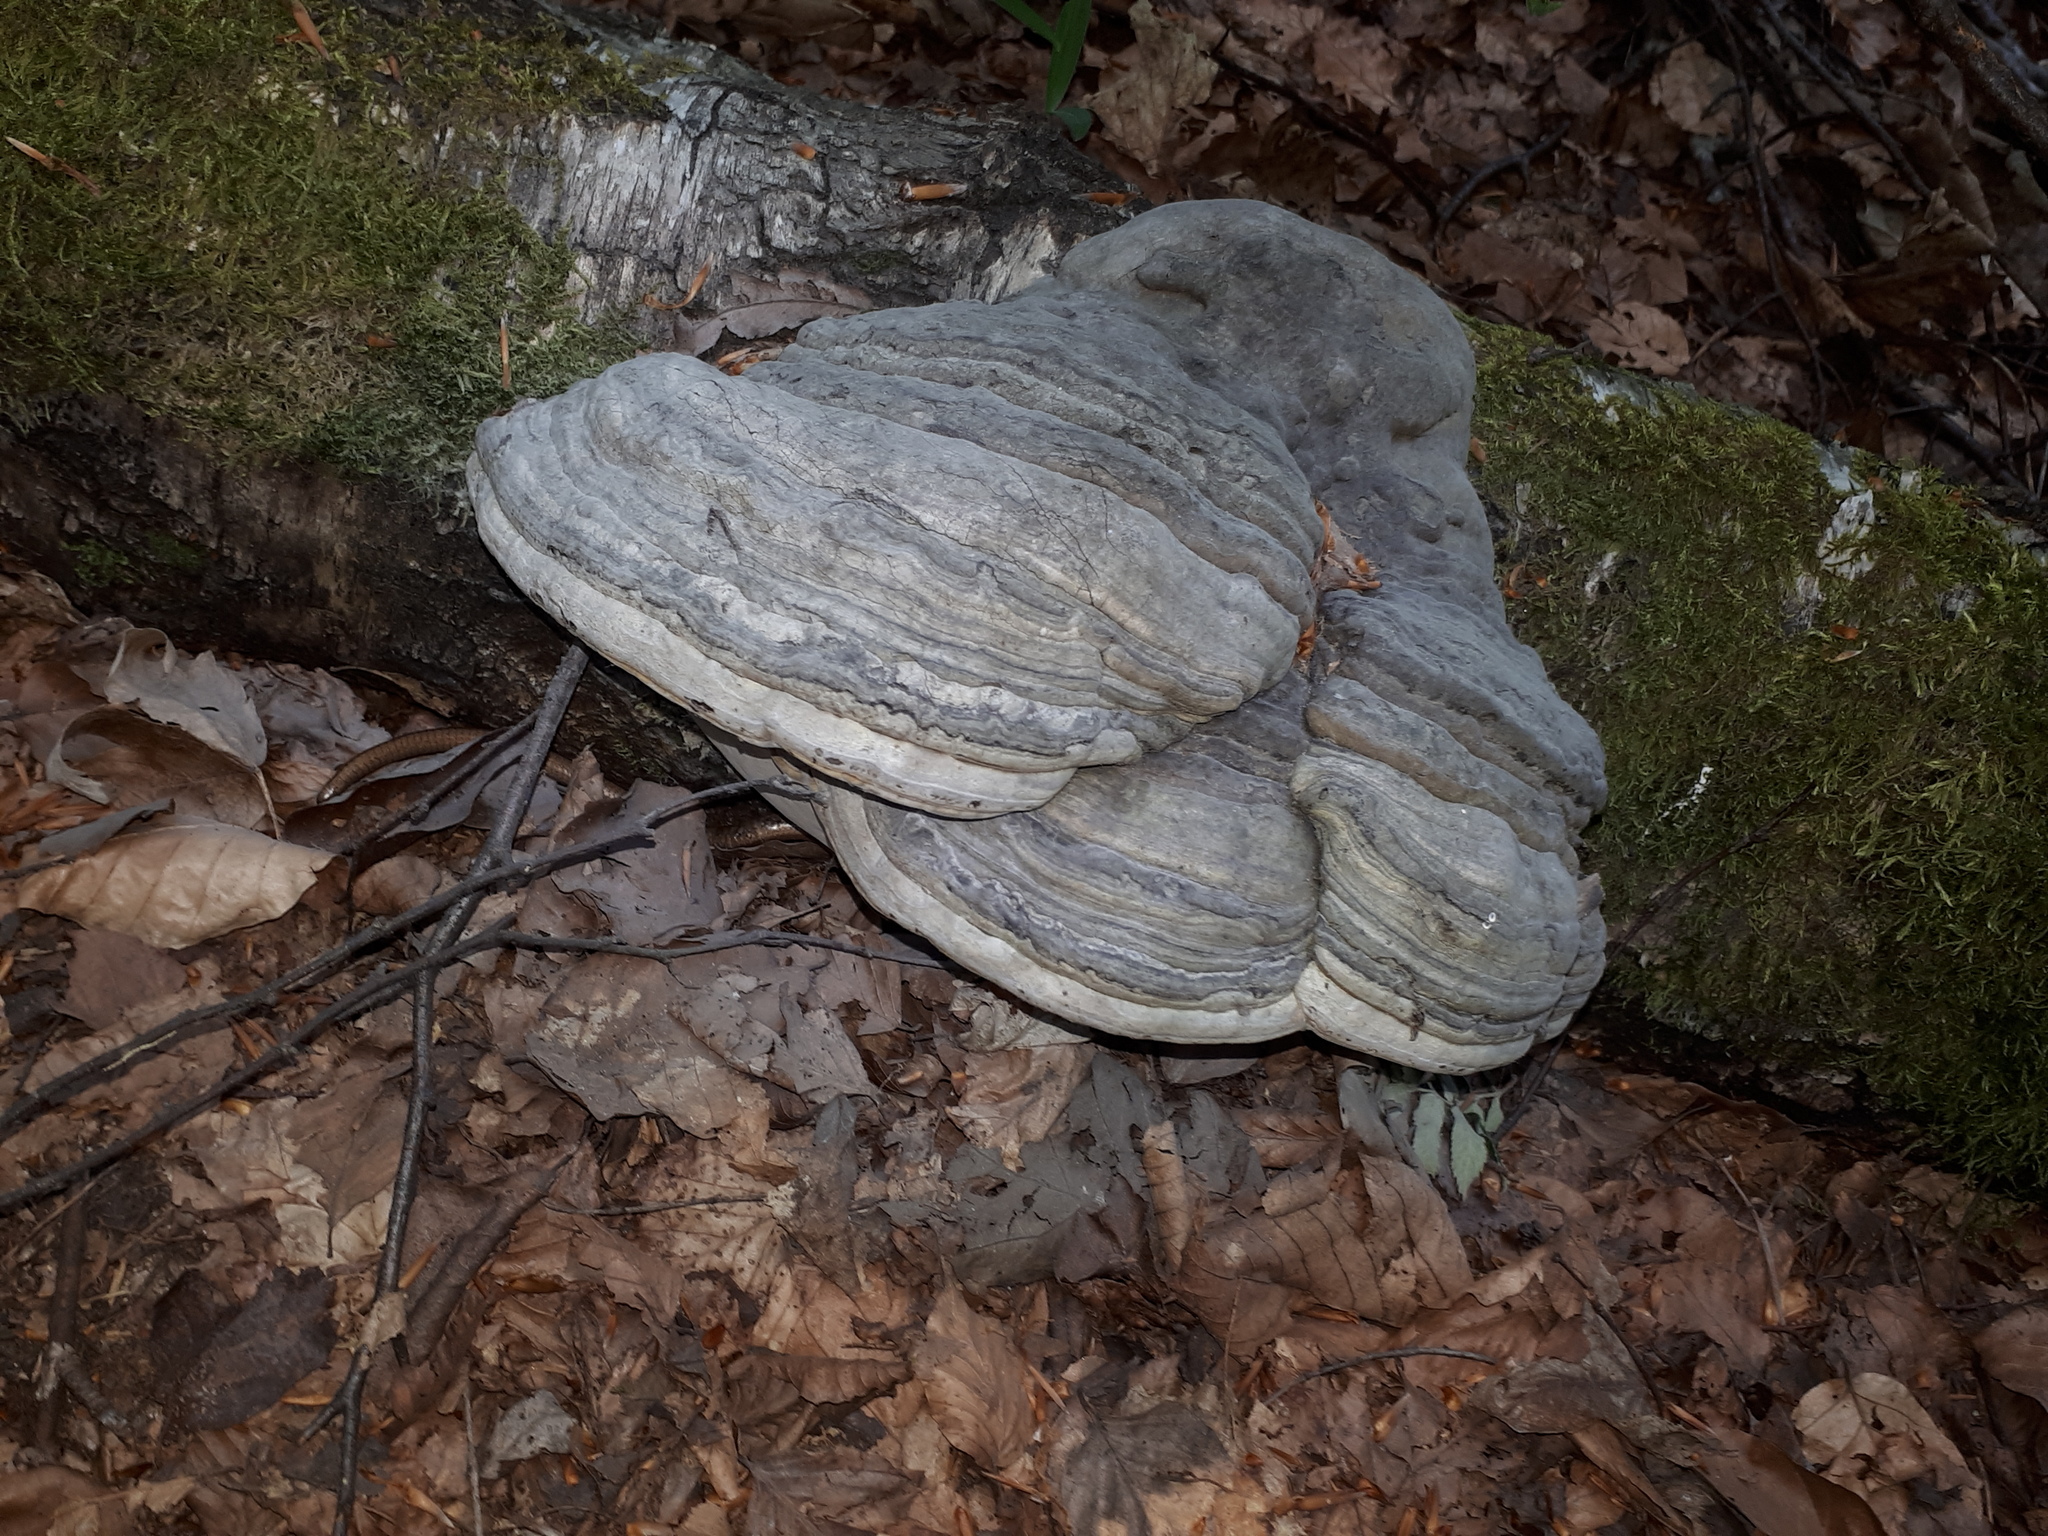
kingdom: Fungi
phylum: Basidiomycota
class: Agaricomycetes
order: Polyporales
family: Polyporaceae
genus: Fomes
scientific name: Fomes fomentarius
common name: Hoof fungus
